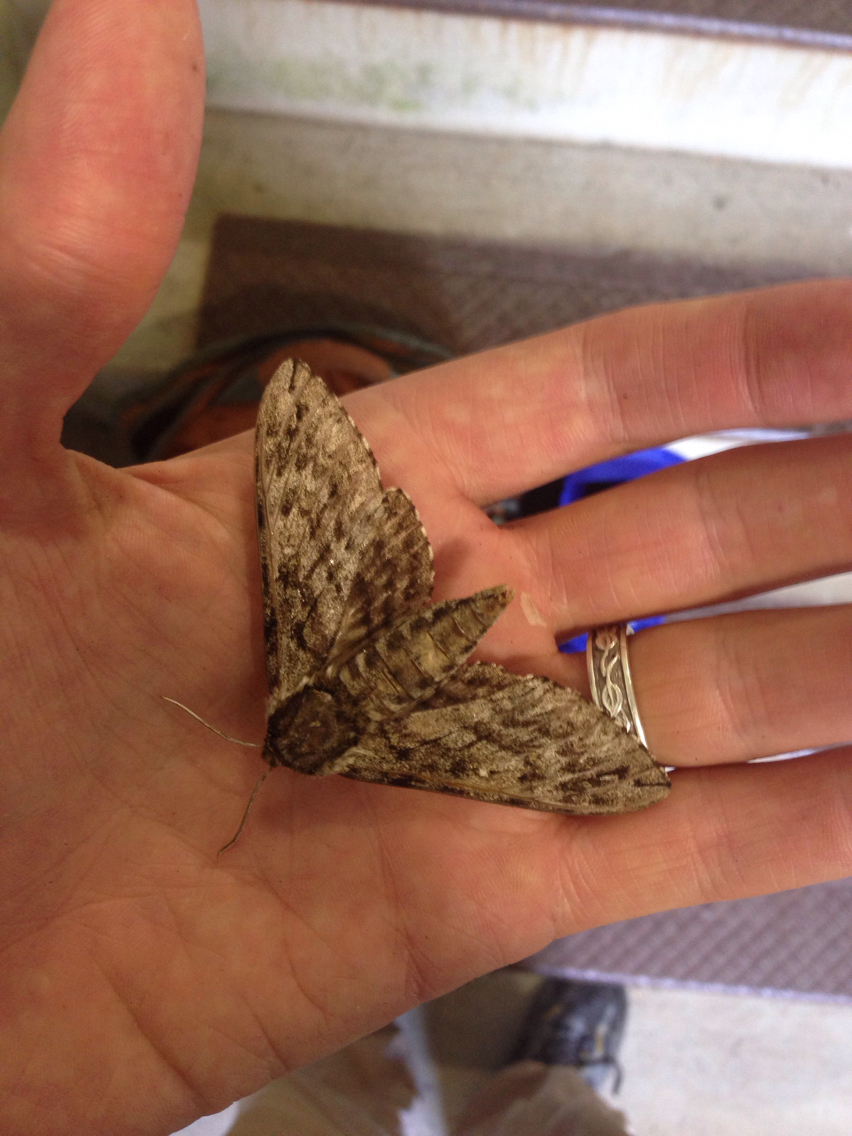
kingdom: Animalia
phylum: Arthropoda
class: Insecta
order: Lepidoptera
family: Sphingidae
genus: Ceratomia
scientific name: Ceratomia undulosa
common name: Waved sphinx
